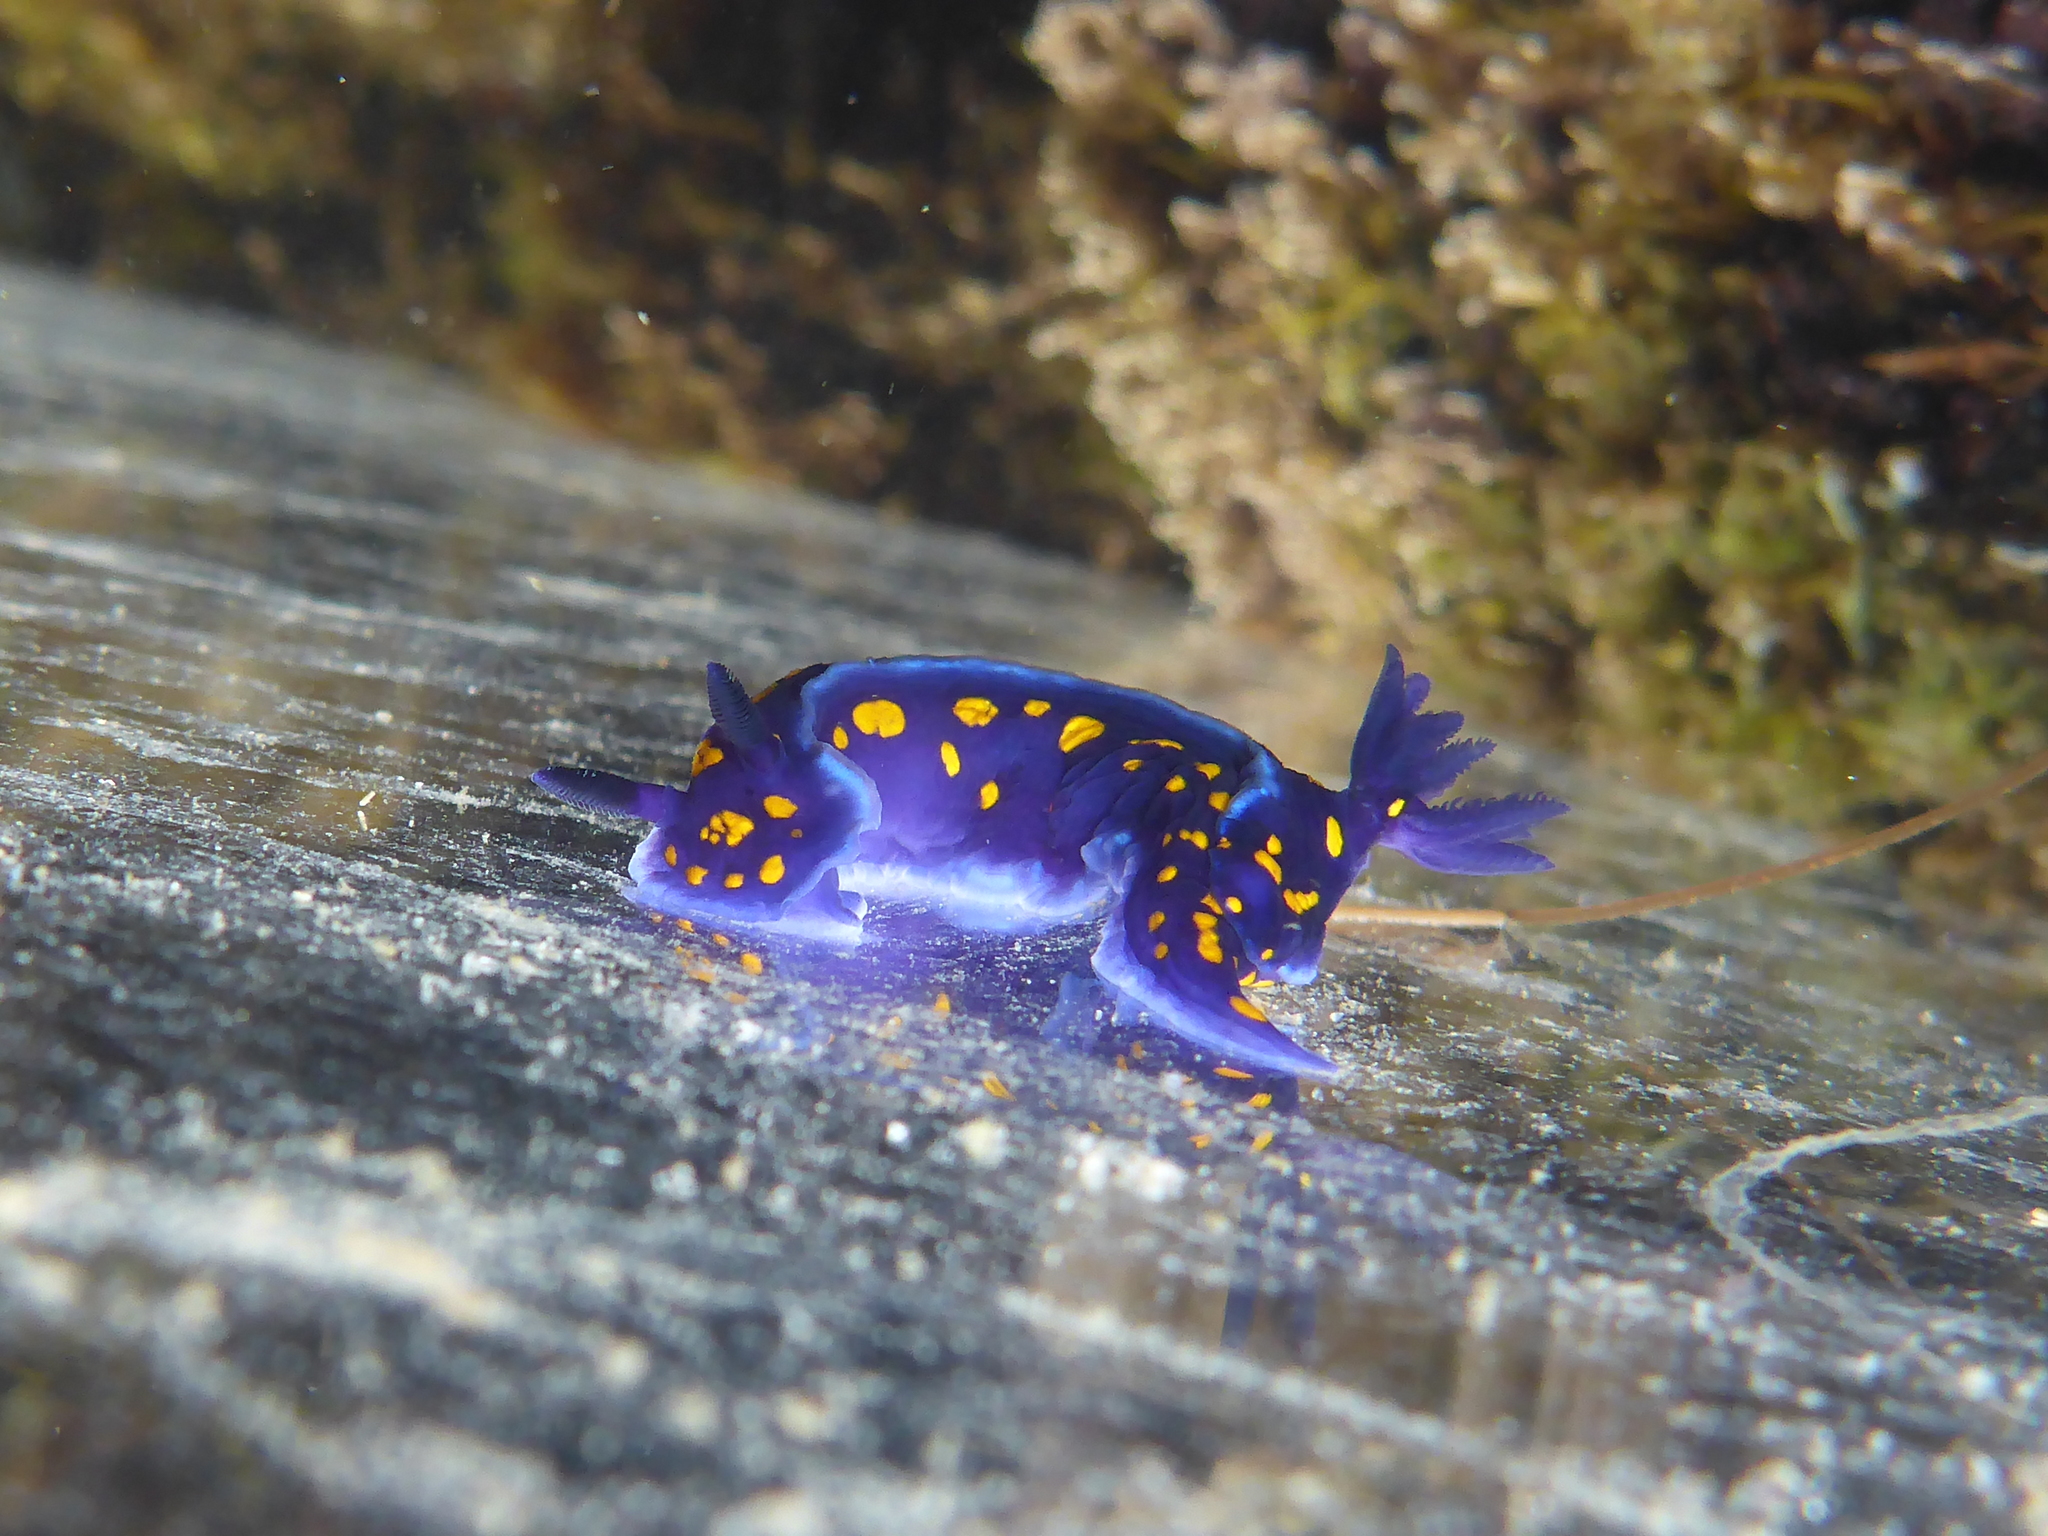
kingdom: Animalia
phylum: Mollusca
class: Gastropoda
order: Nudibranchia
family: Chromodorididae
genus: Felimare
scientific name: Felimare californiensis
